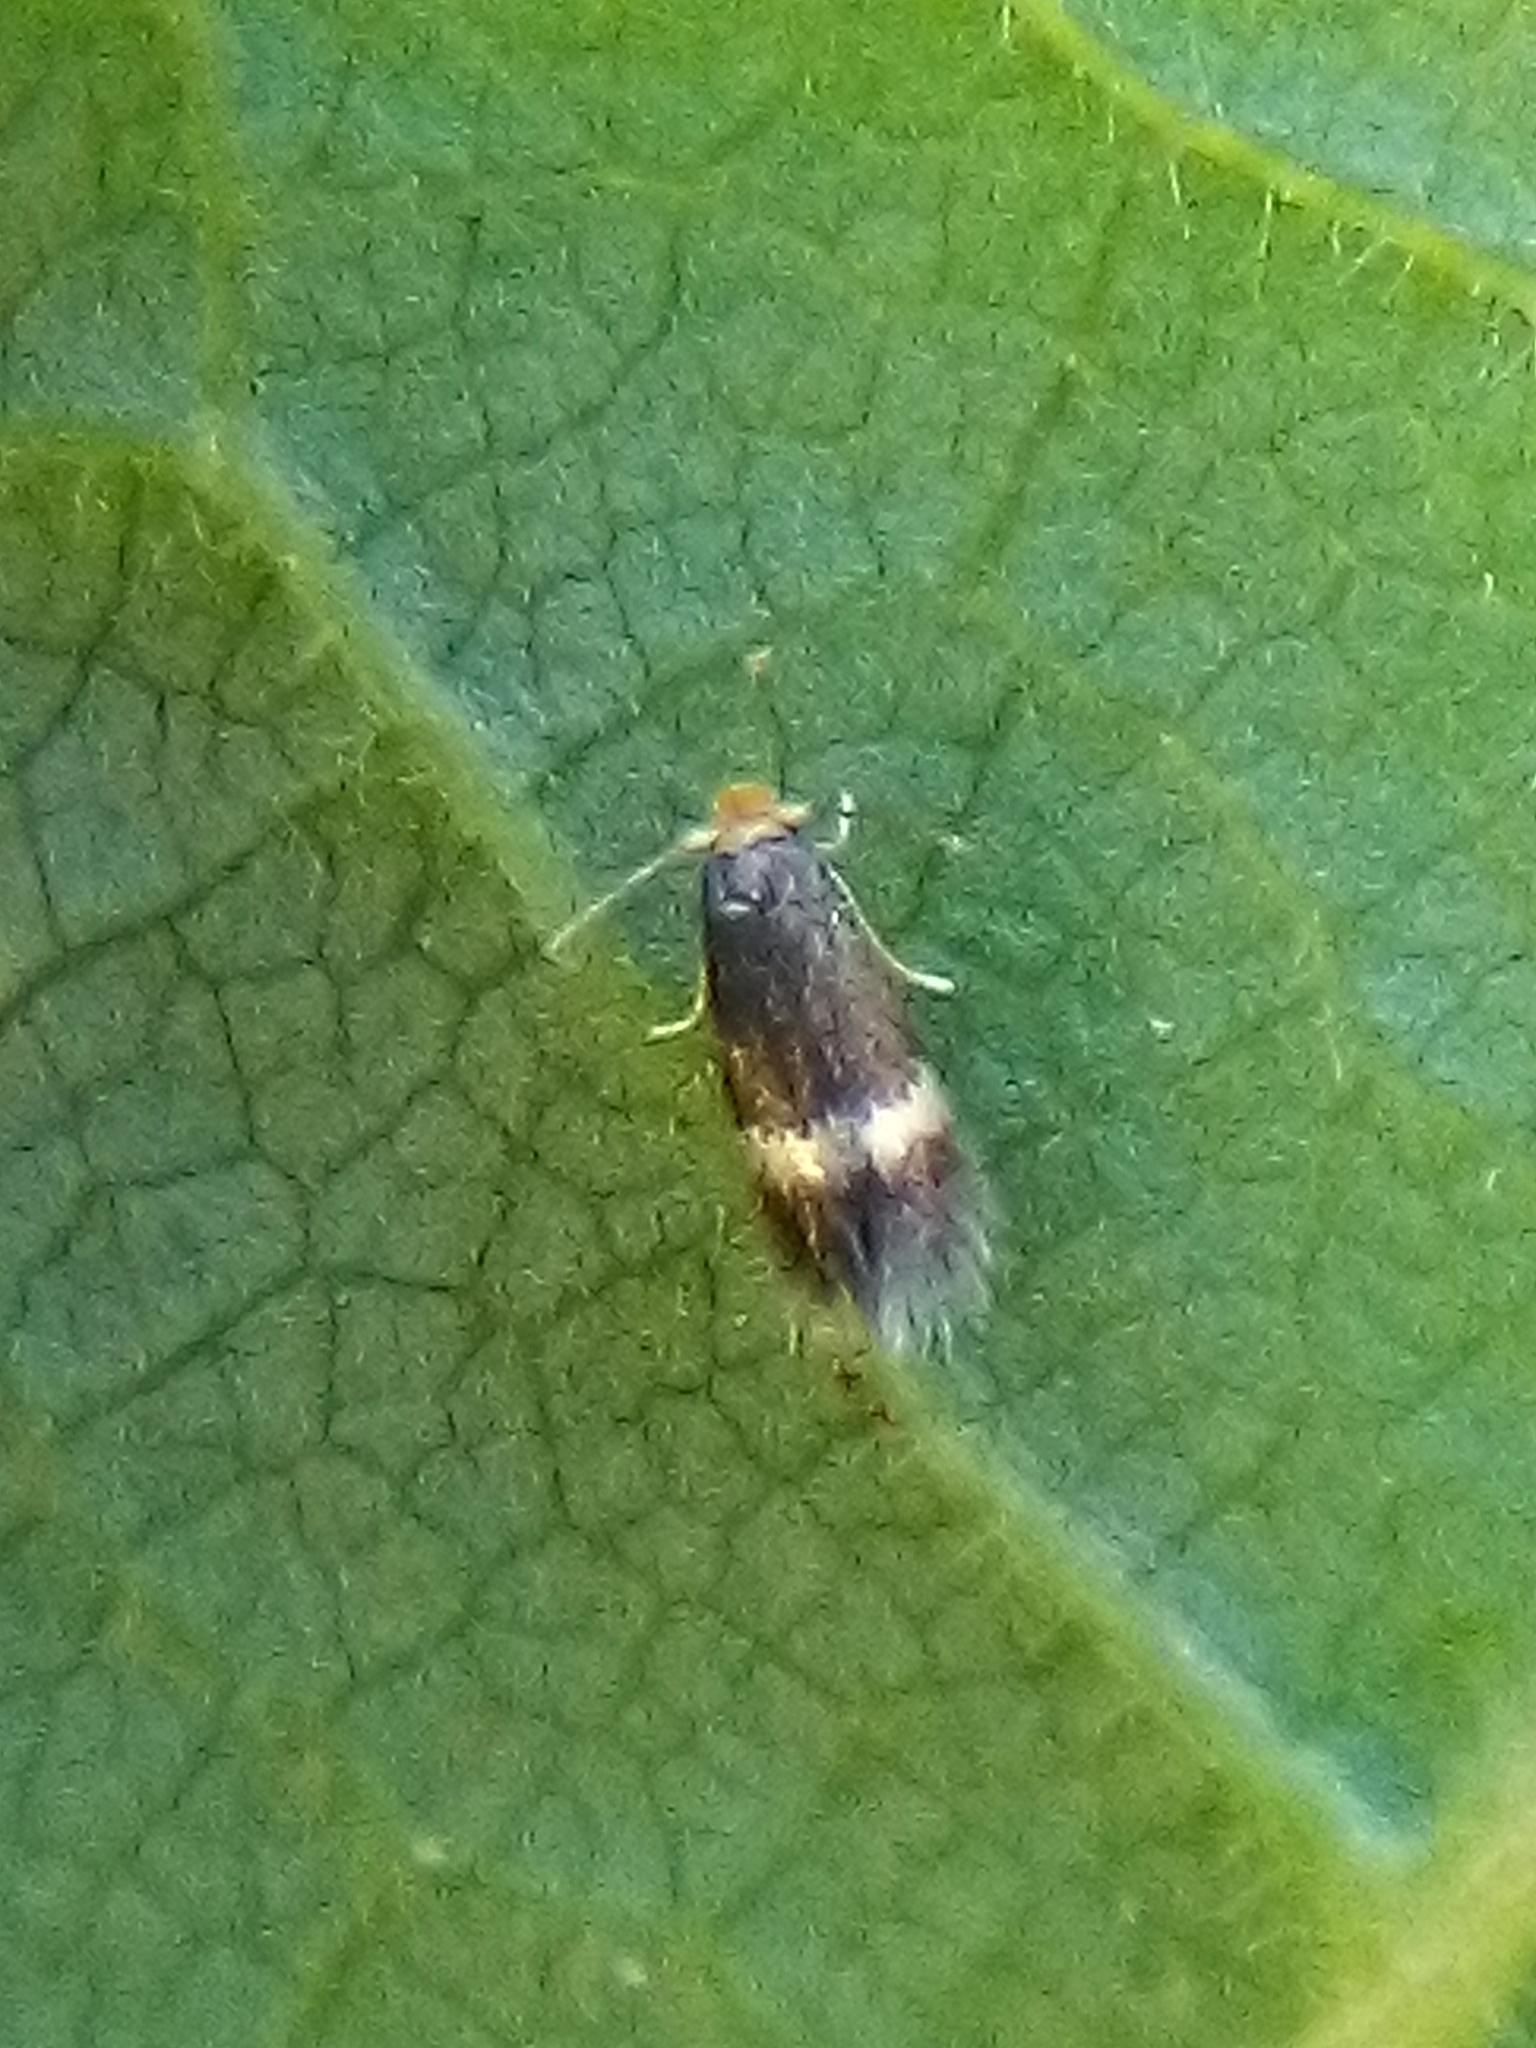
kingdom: Animalia
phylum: Arthropoda
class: Insecta
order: Lepidoptera
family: Nepticulidae
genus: Stigmella
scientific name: Stigmella microtheriella
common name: Nut-tree pigmy
